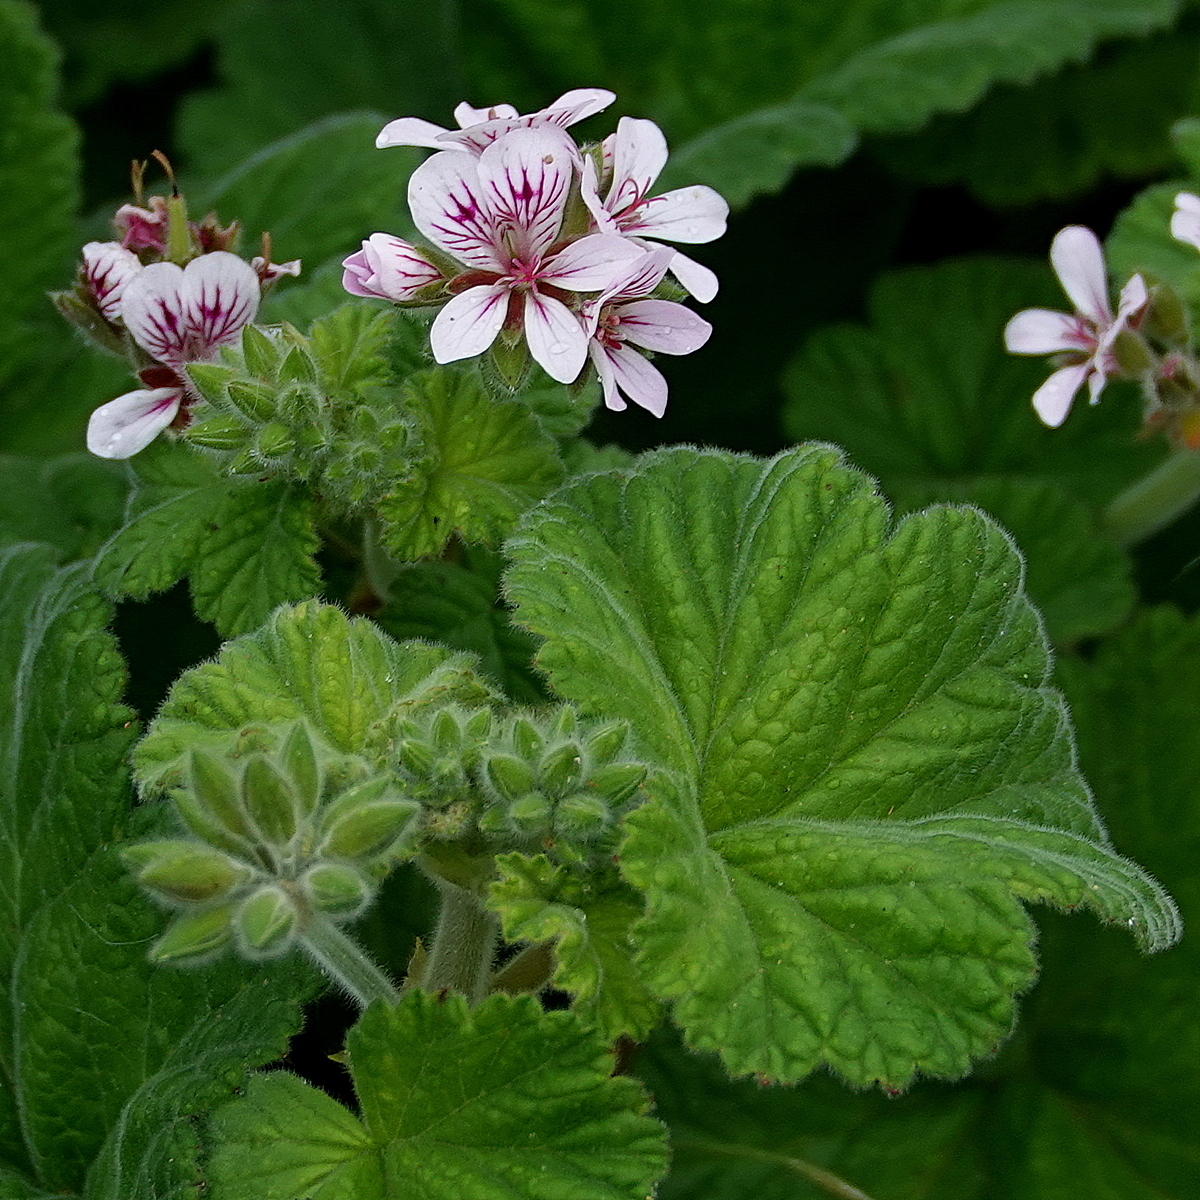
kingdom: Plantae
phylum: Tracheophyta
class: Magnoliopsida
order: Geraniales
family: Geraniaceae
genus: Pelargonium
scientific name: Pelargonium australe
